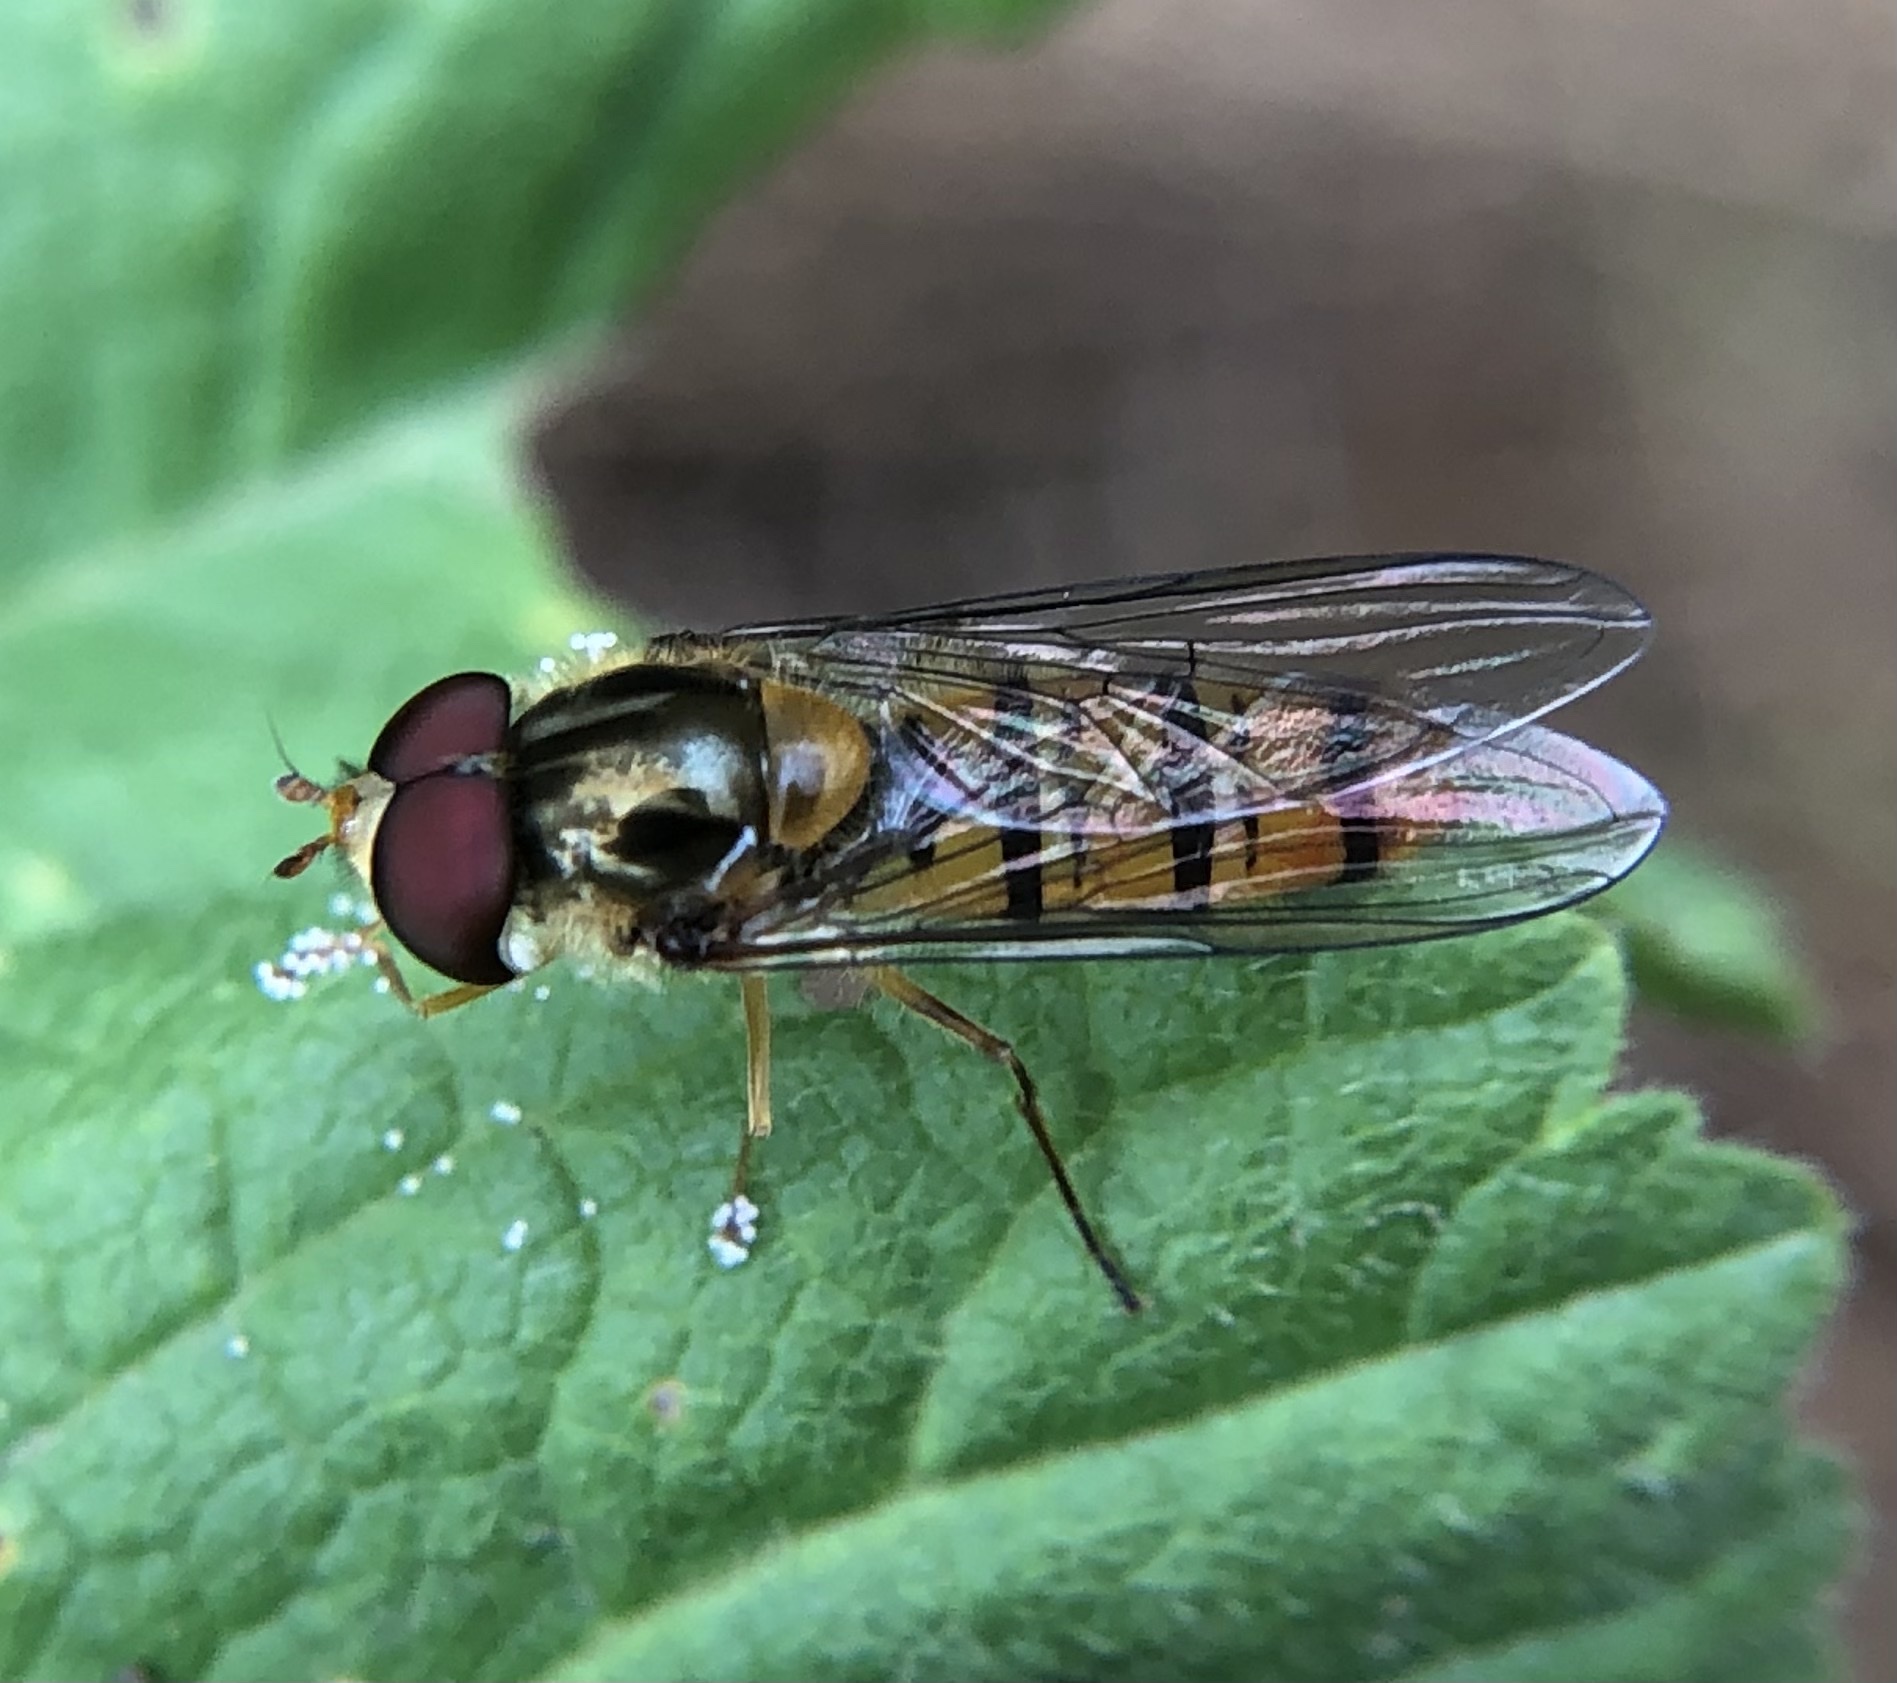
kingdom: Animalia
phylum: Arthropoda
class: Insecta
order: Diptera
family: Syrphidae
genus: Episyrphus
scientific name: Episyrphus balteatus
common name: Marmalade hoverfly
